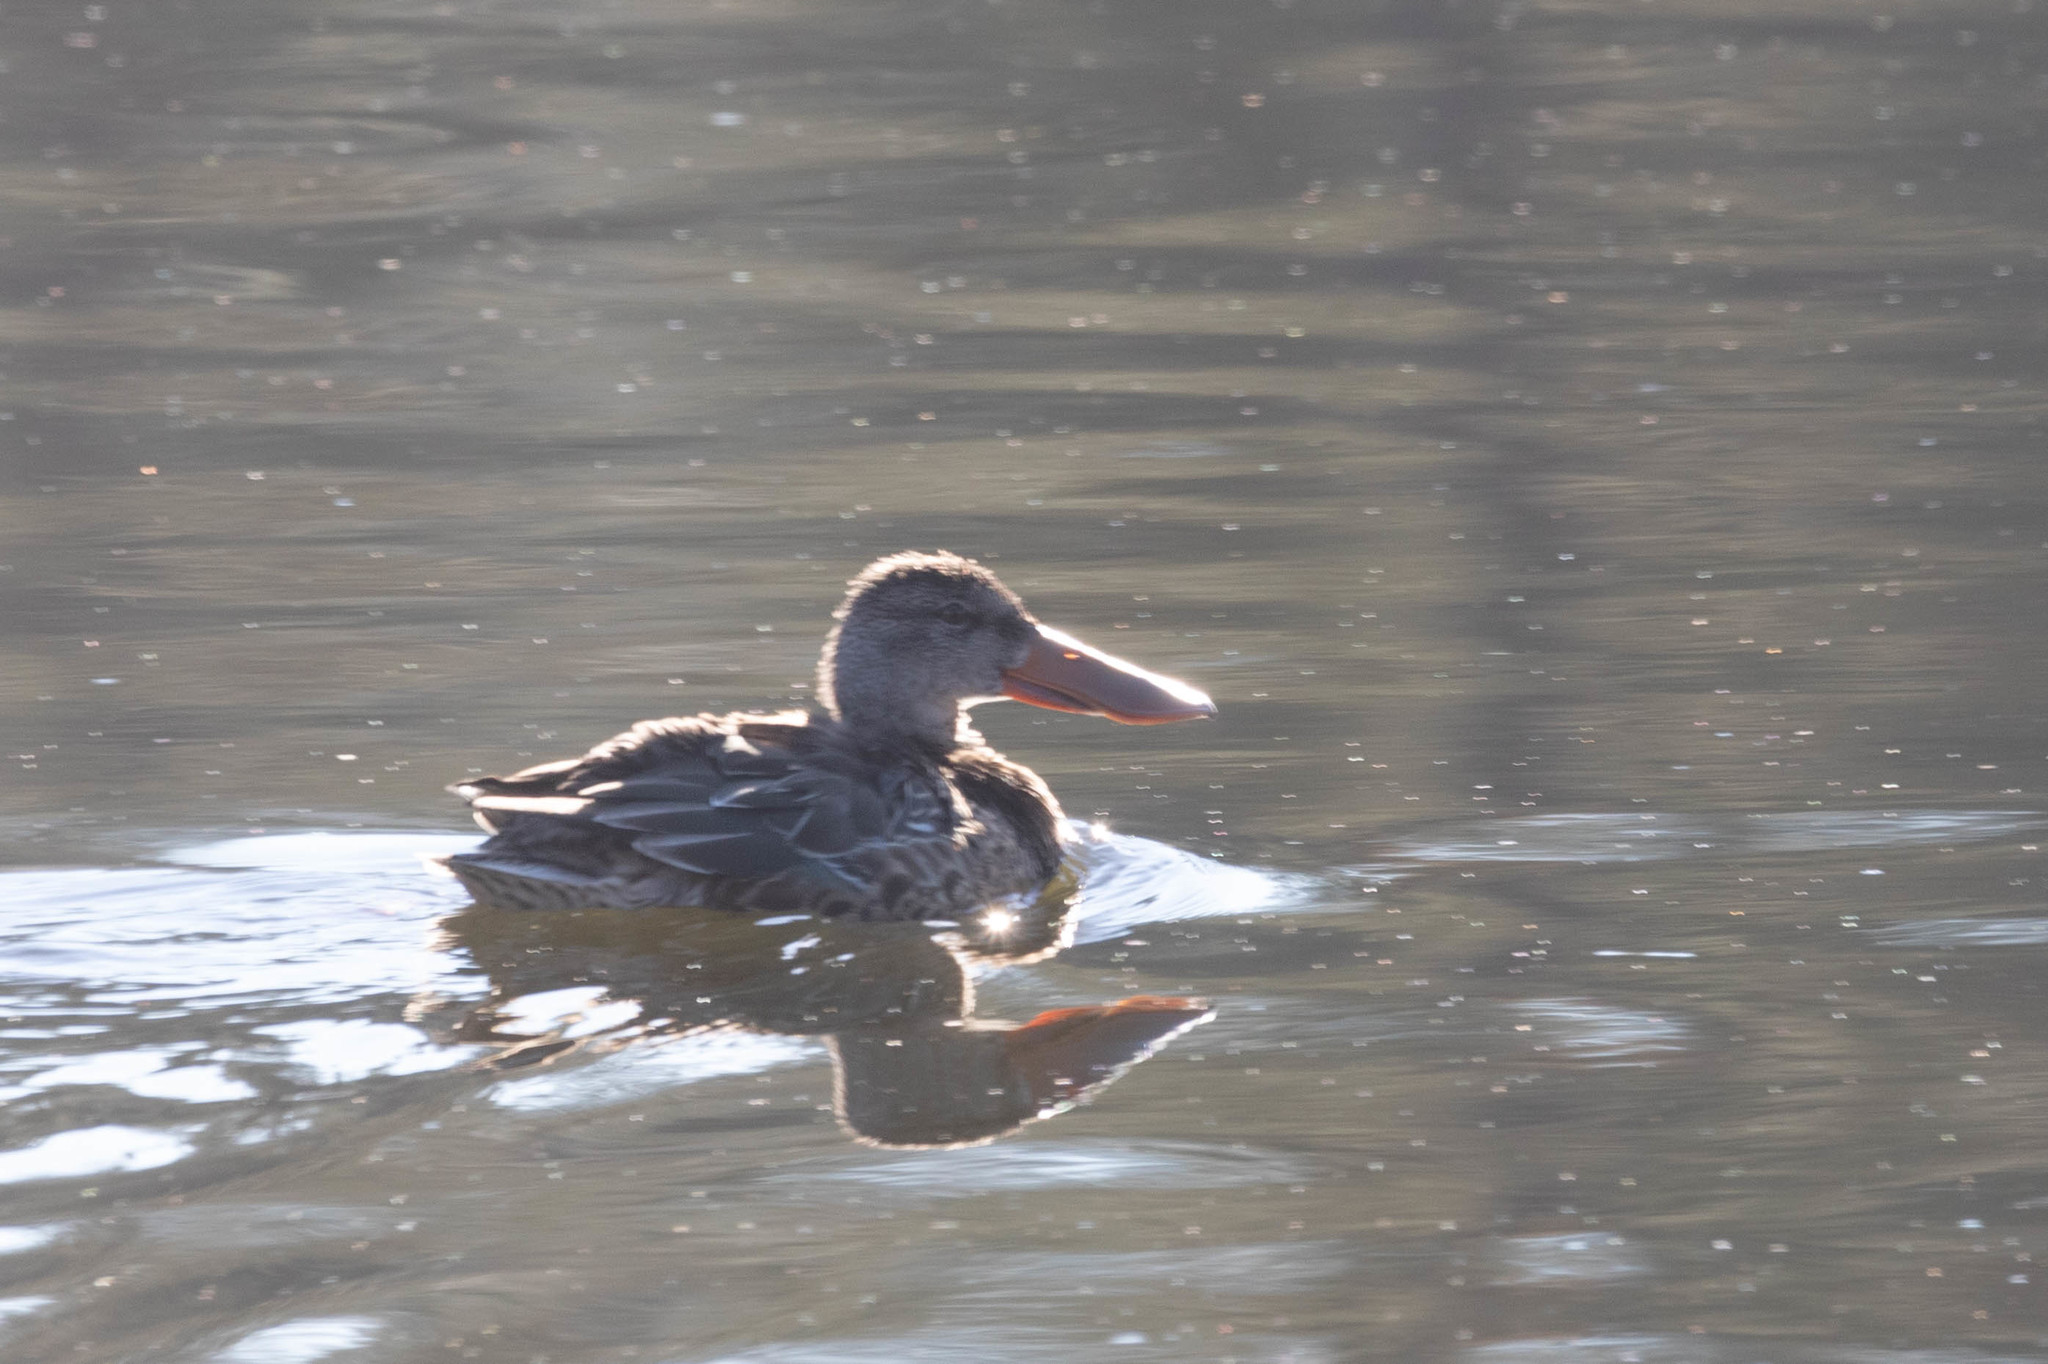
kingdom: Animalia
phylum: Chordata
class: Aves
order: Anseriformes
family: Anatidae
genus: Spatula
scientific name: Spatula clypeata
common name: Northern shoveler
